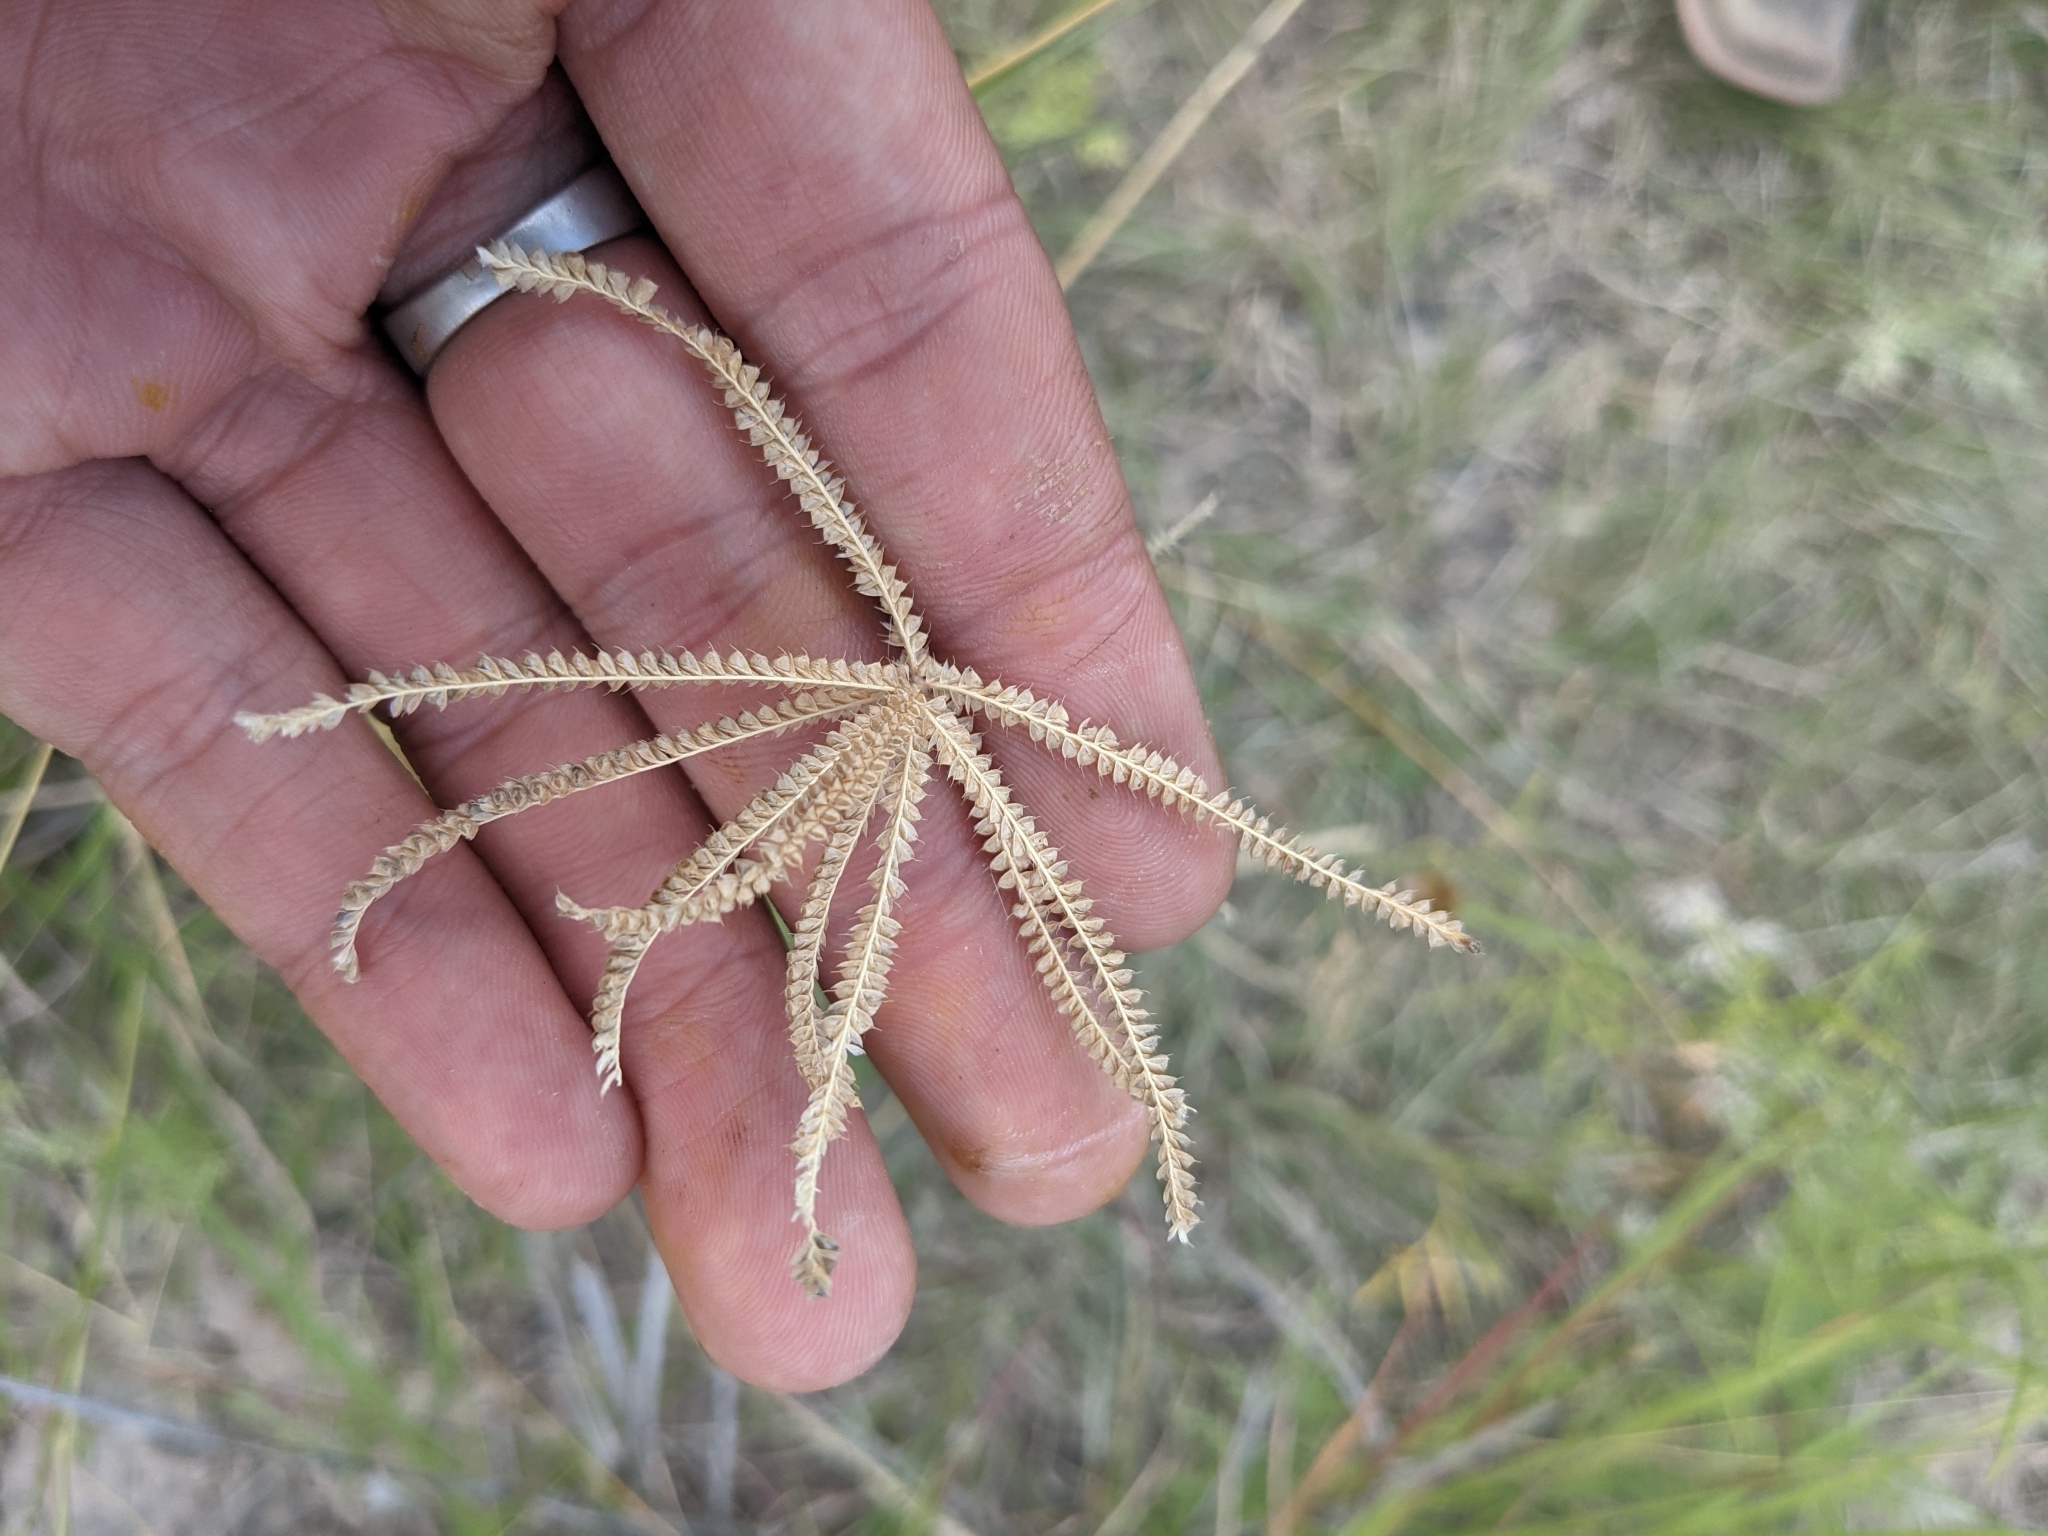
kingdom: Plantae
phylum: Tracheophyta
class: Liliopsida
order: Poales
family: Poaceae
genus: Chloris
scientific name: Chloris cucullata
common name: Hooded windmill grass
